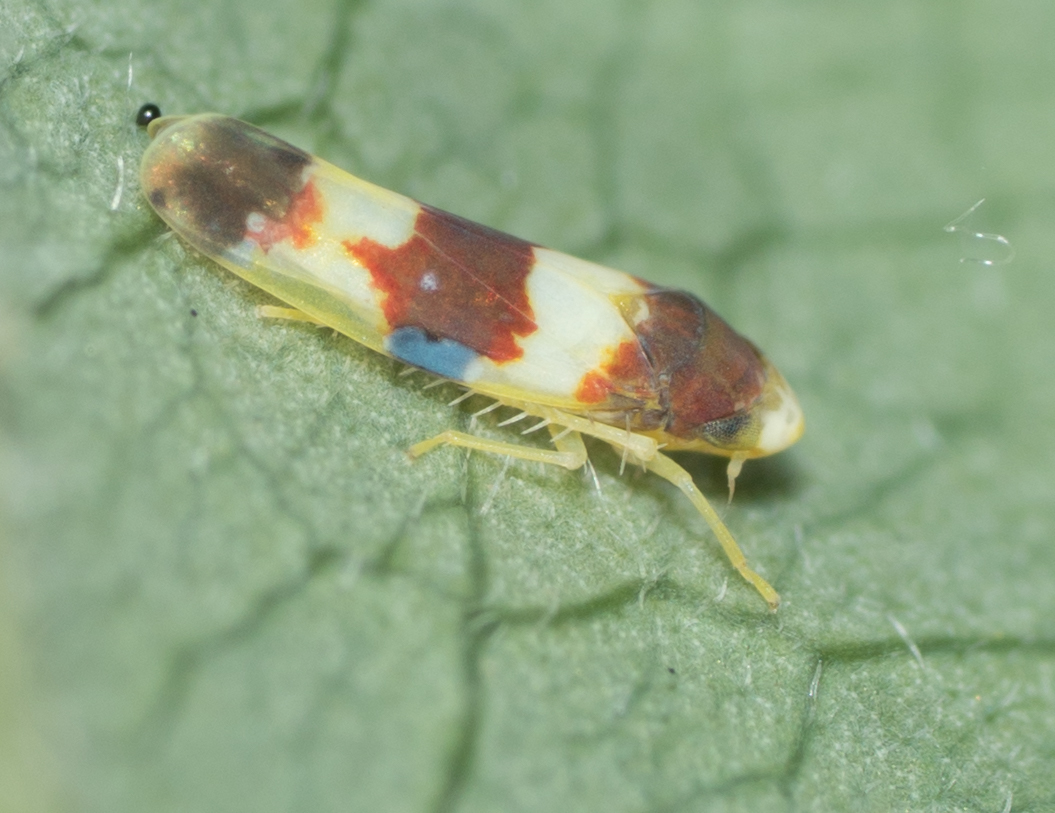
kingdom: Animalia
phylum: Arthropoda
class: Insecta
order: Hemiptera
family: Cicadellidae
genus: Erythroneura
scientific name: Erythroneura bistrata
